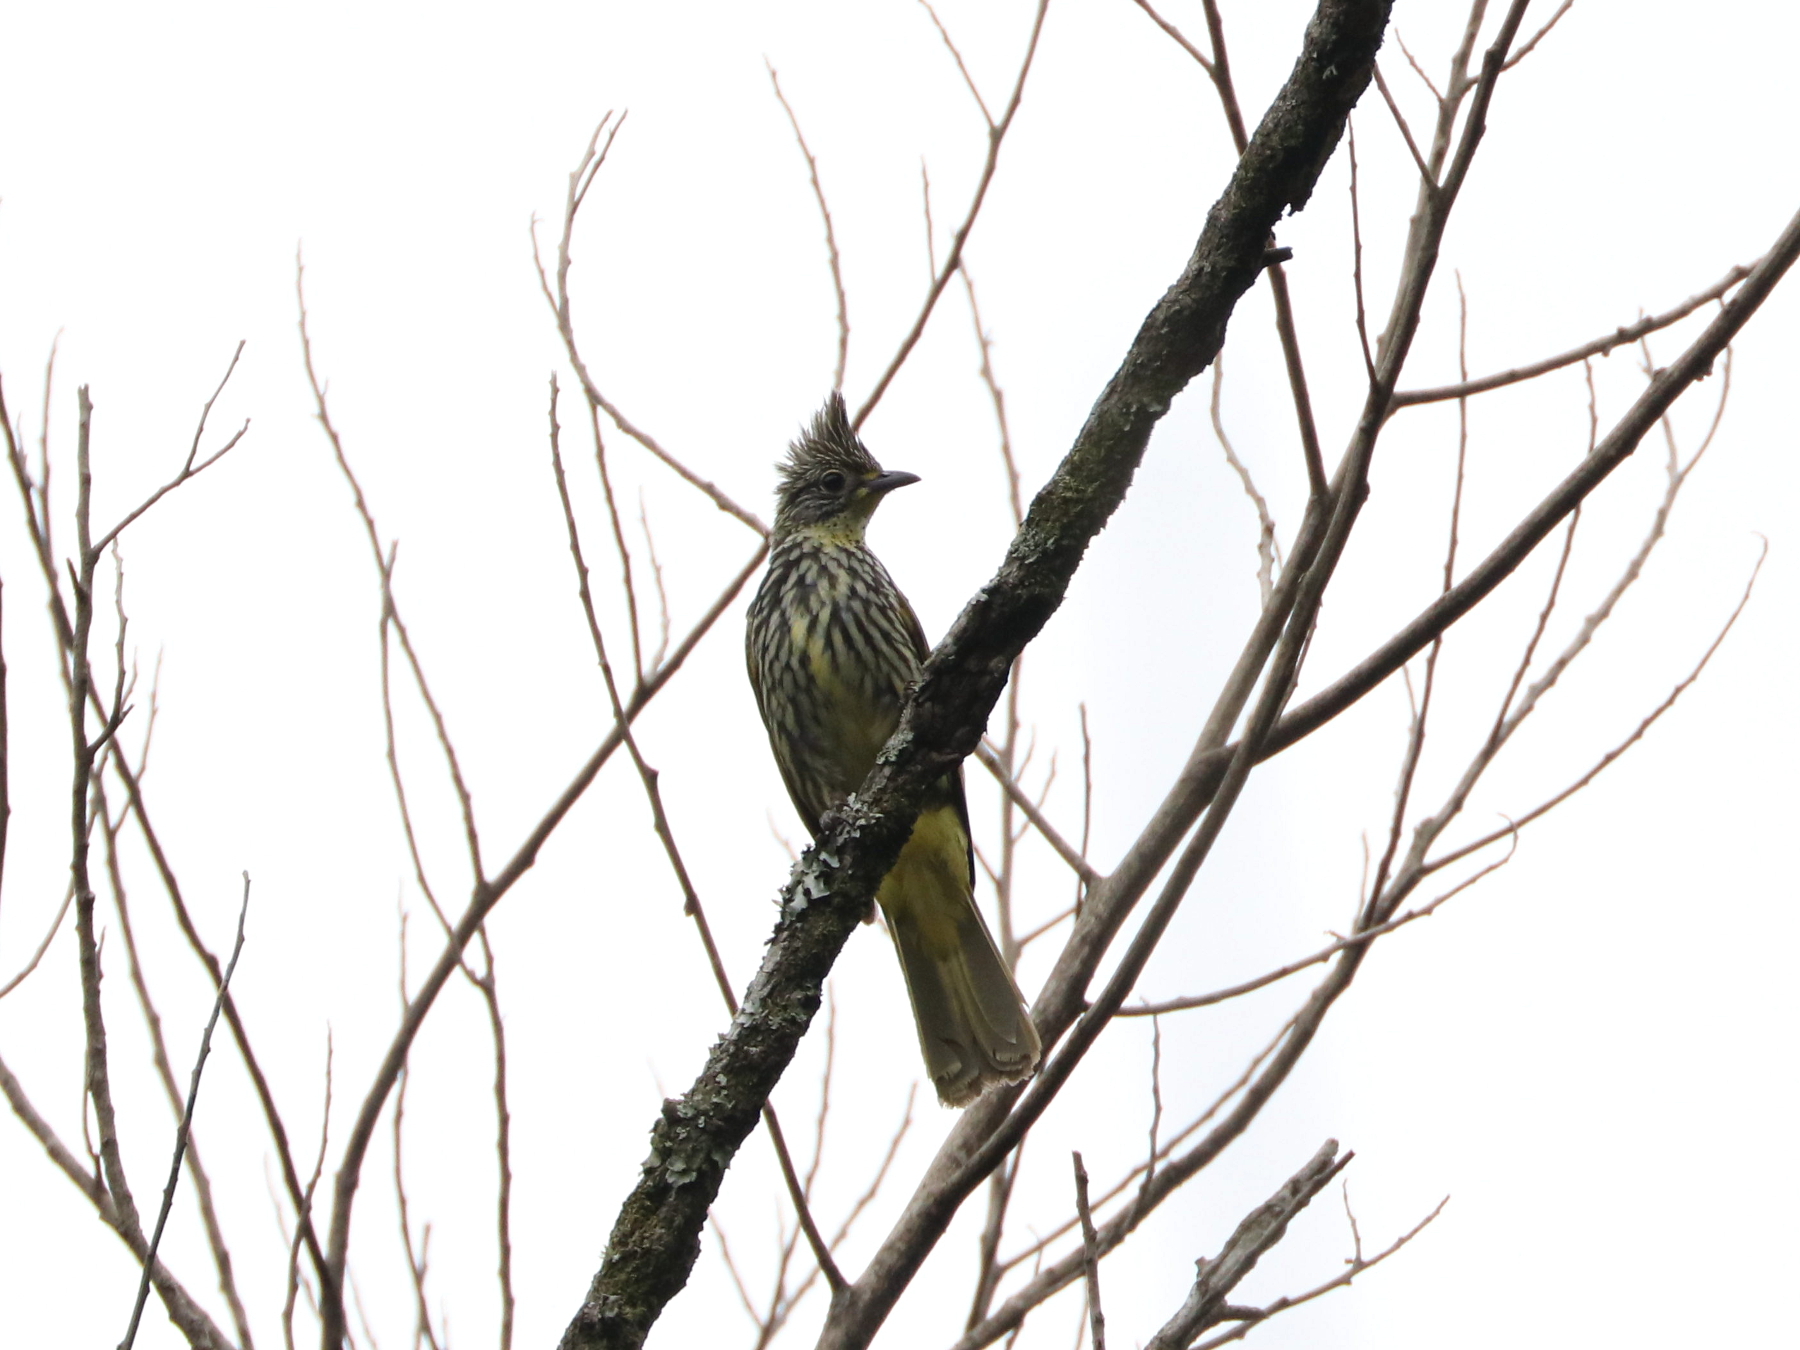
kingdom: Animalia
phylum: Chordata
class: Aves
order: Passeriformes
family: Pycnonotidae
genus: Pycnonotus
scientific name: Pycnonotus striatus
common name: Striated bulbul
